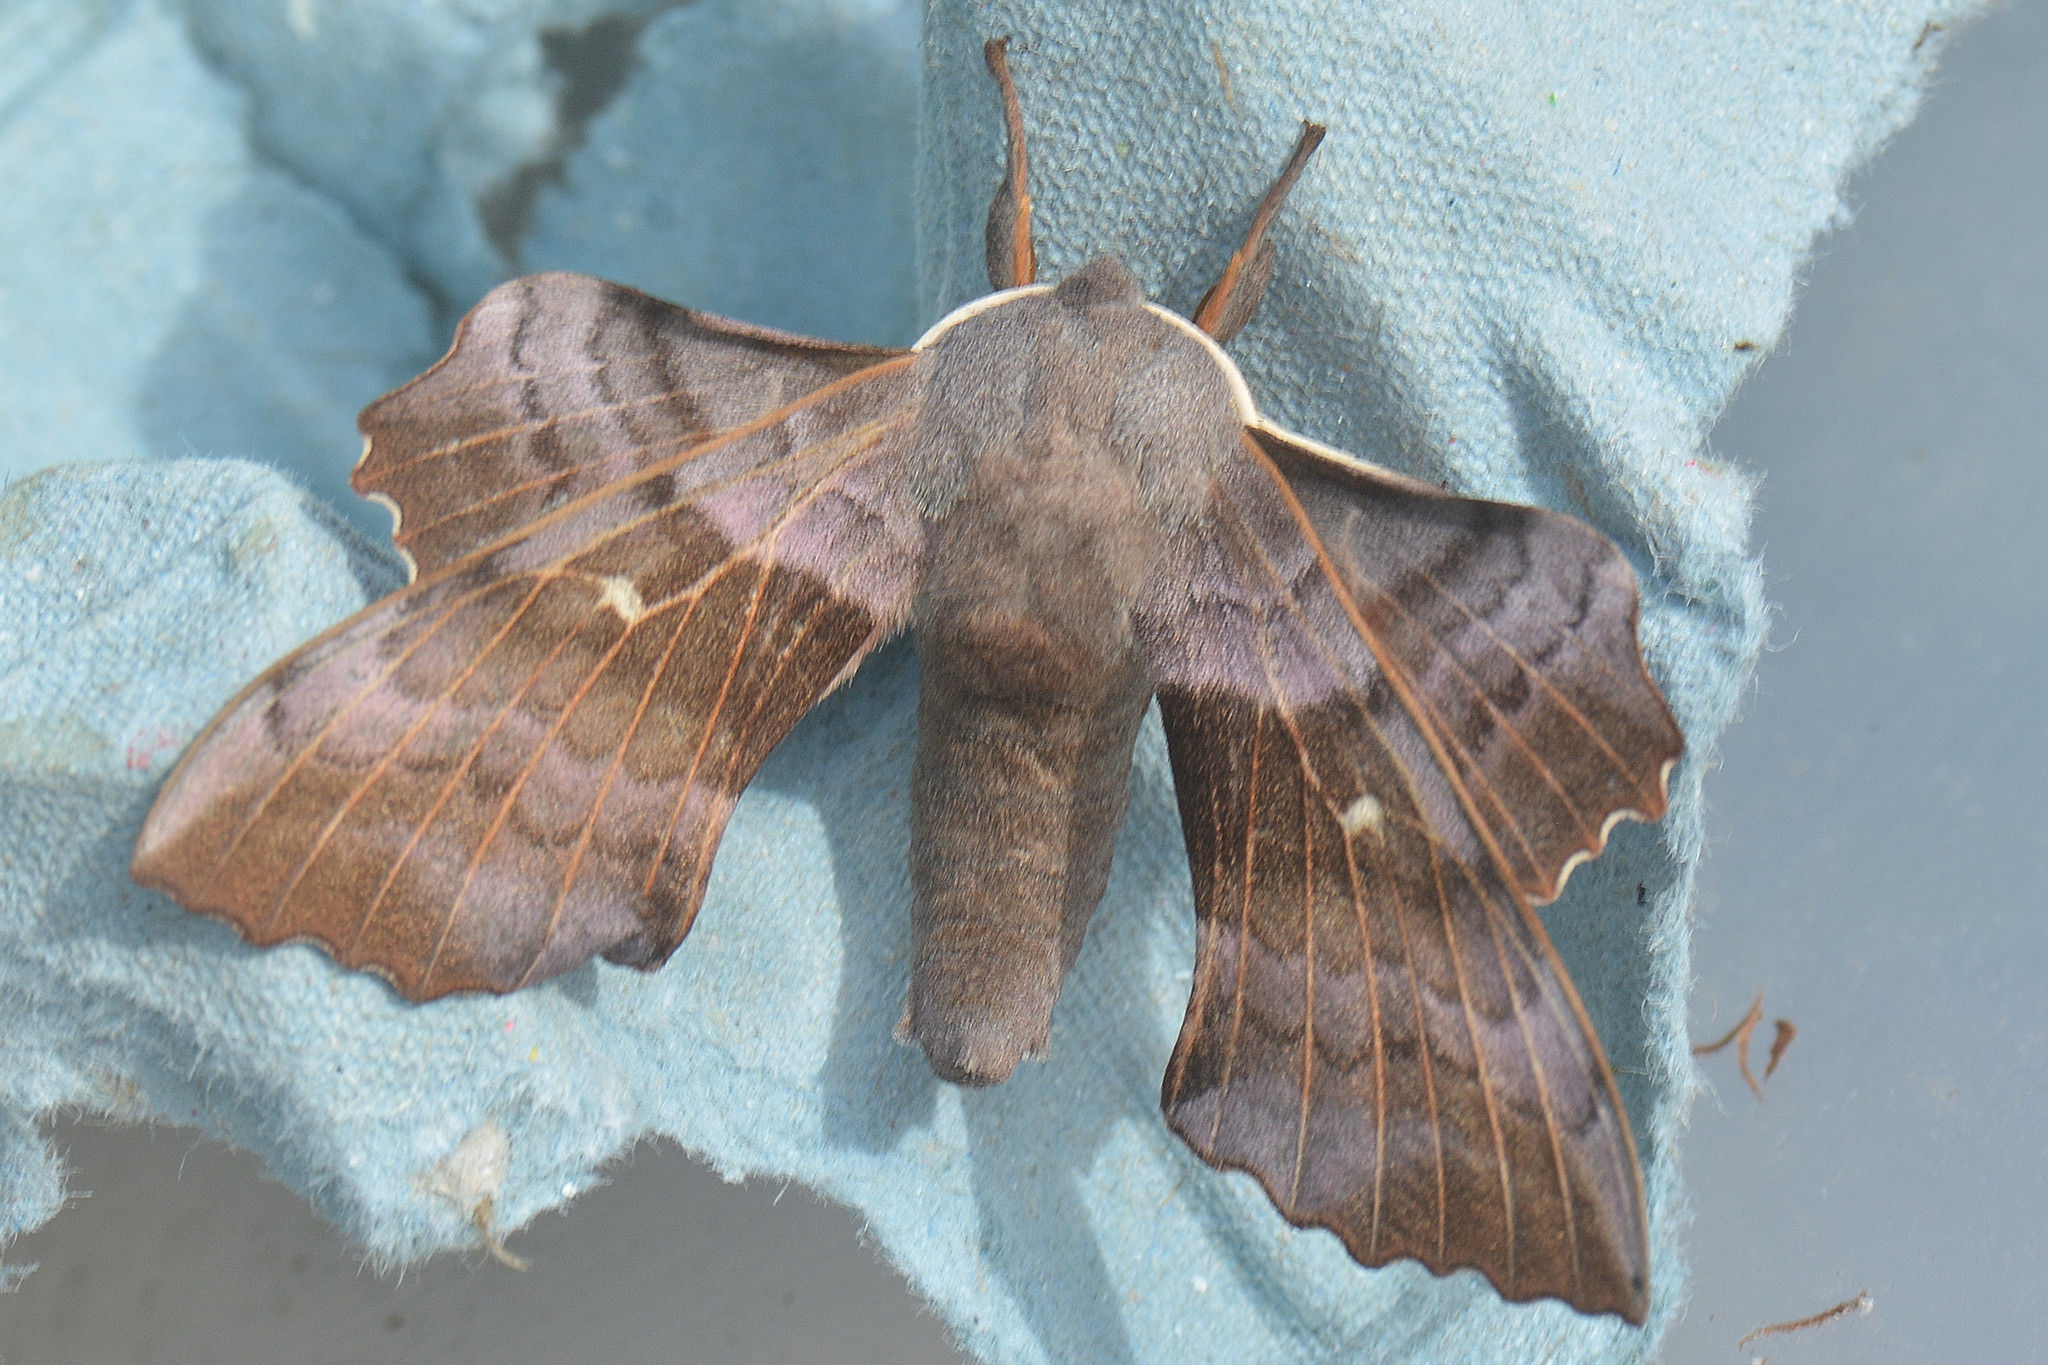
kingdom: Animalia
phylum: Arthropoda
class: Insecta
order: Lepidoptera
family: Sphingidae
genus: Laothoe
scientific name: Laothoe populi
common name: Poplar hawk-moth
